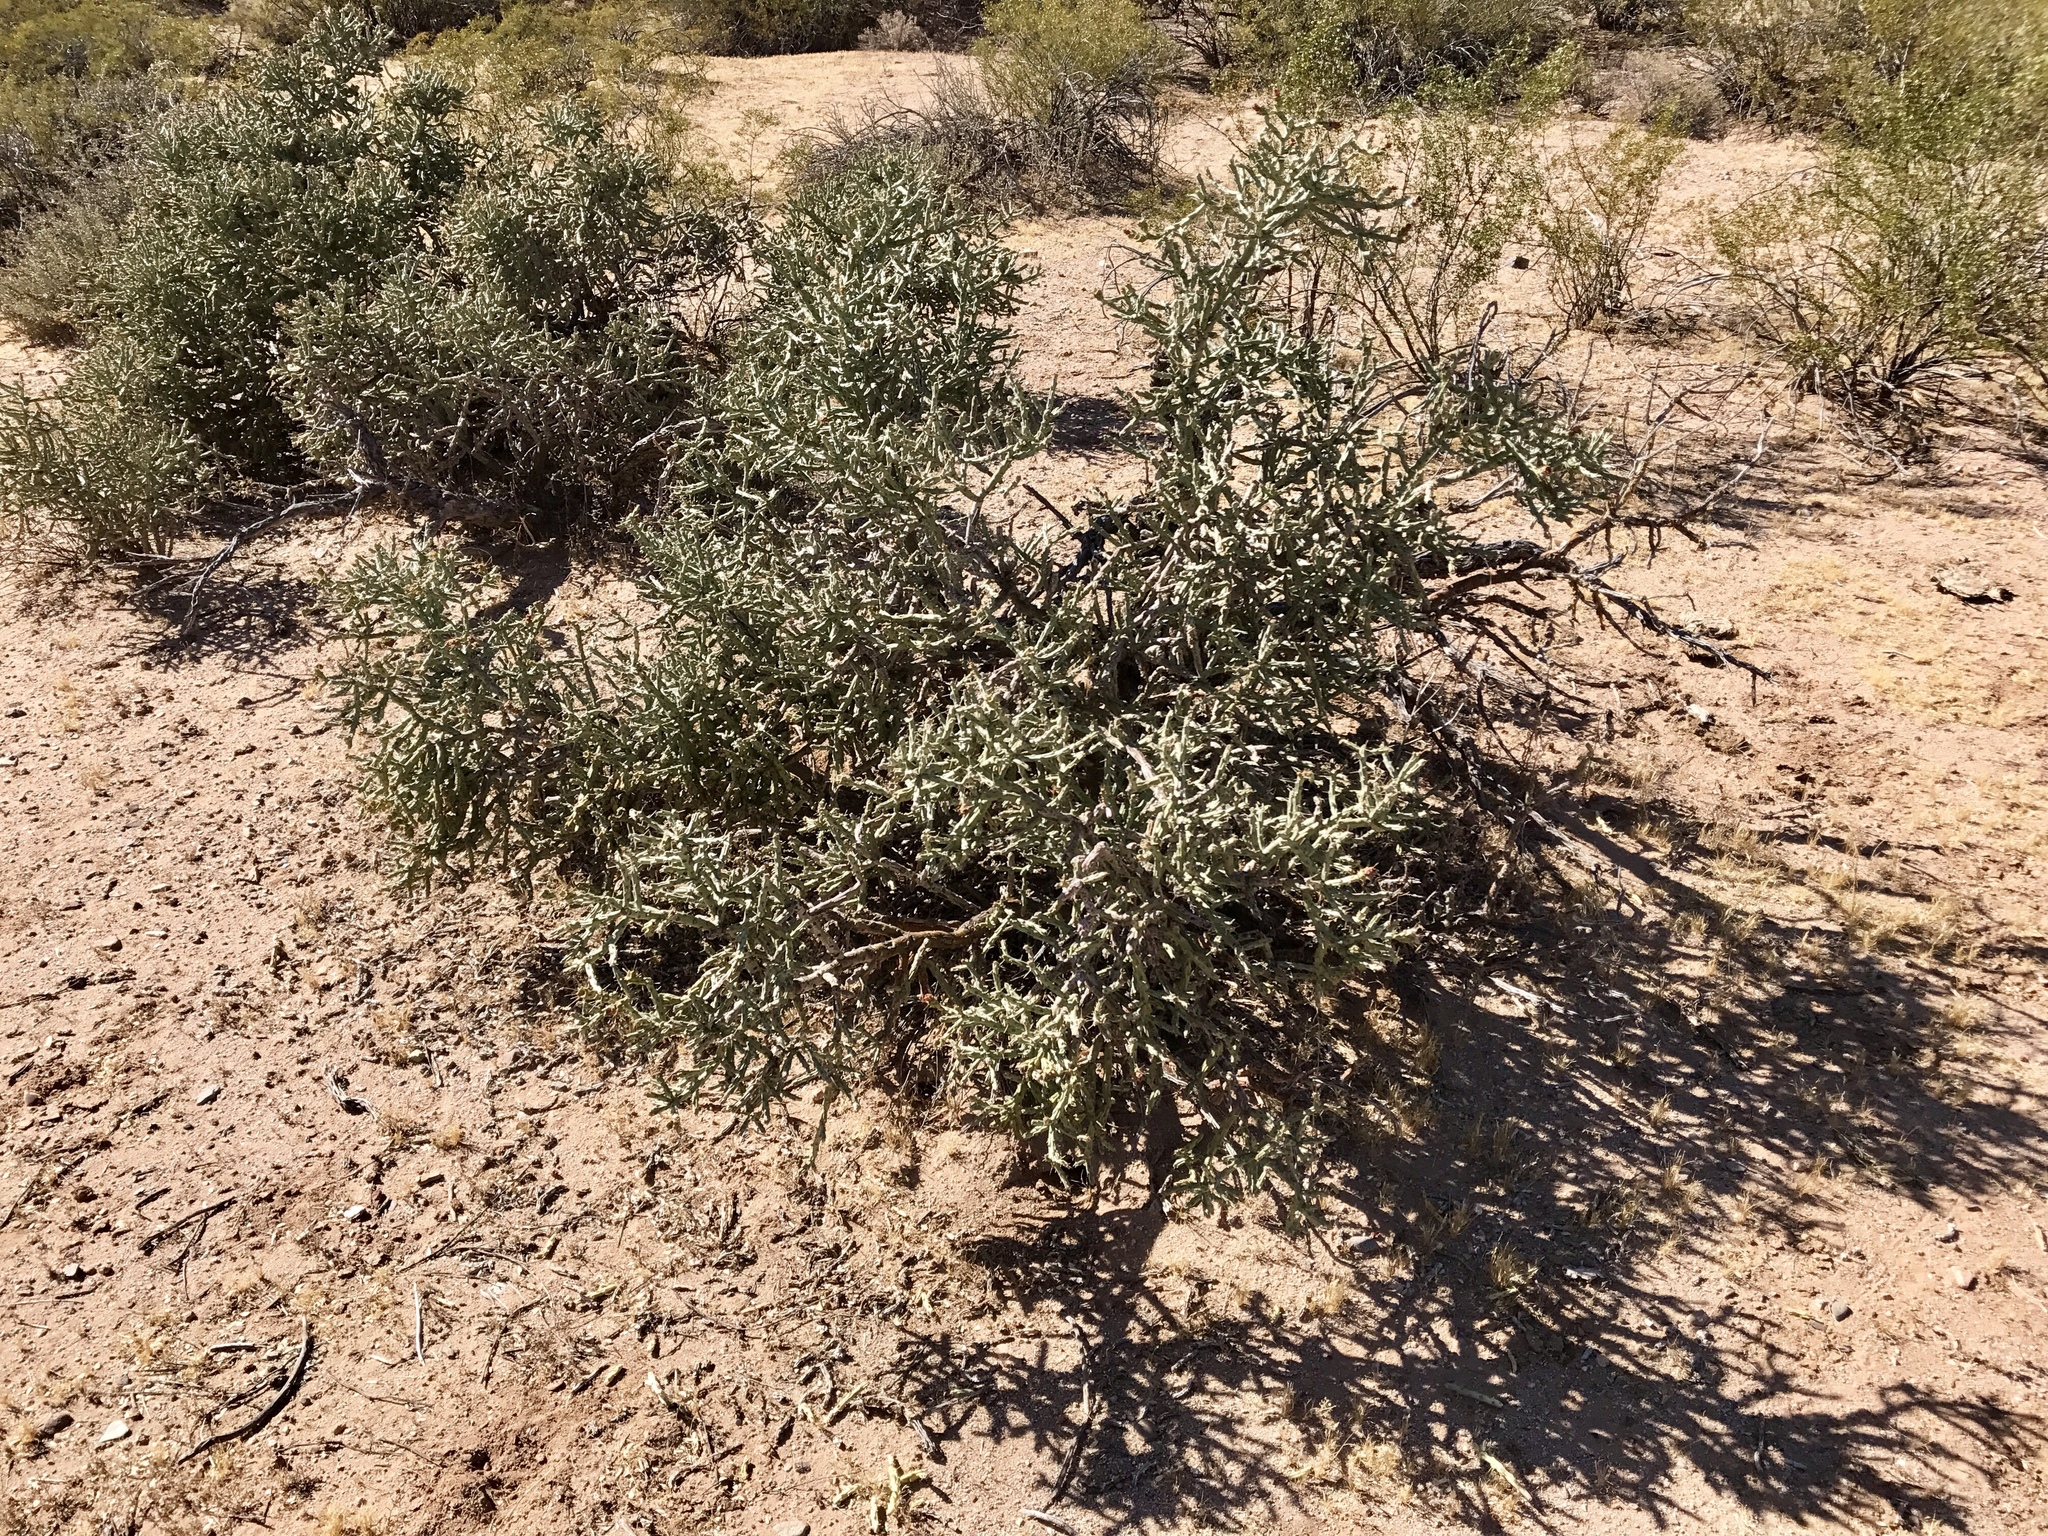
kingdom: Plantae
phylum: Tracheophyta
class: Magnoliopsida
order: Caryophyllales
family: Cactaceae
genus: Cylindropuntia
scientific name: Cylindropuntia arbuscula
